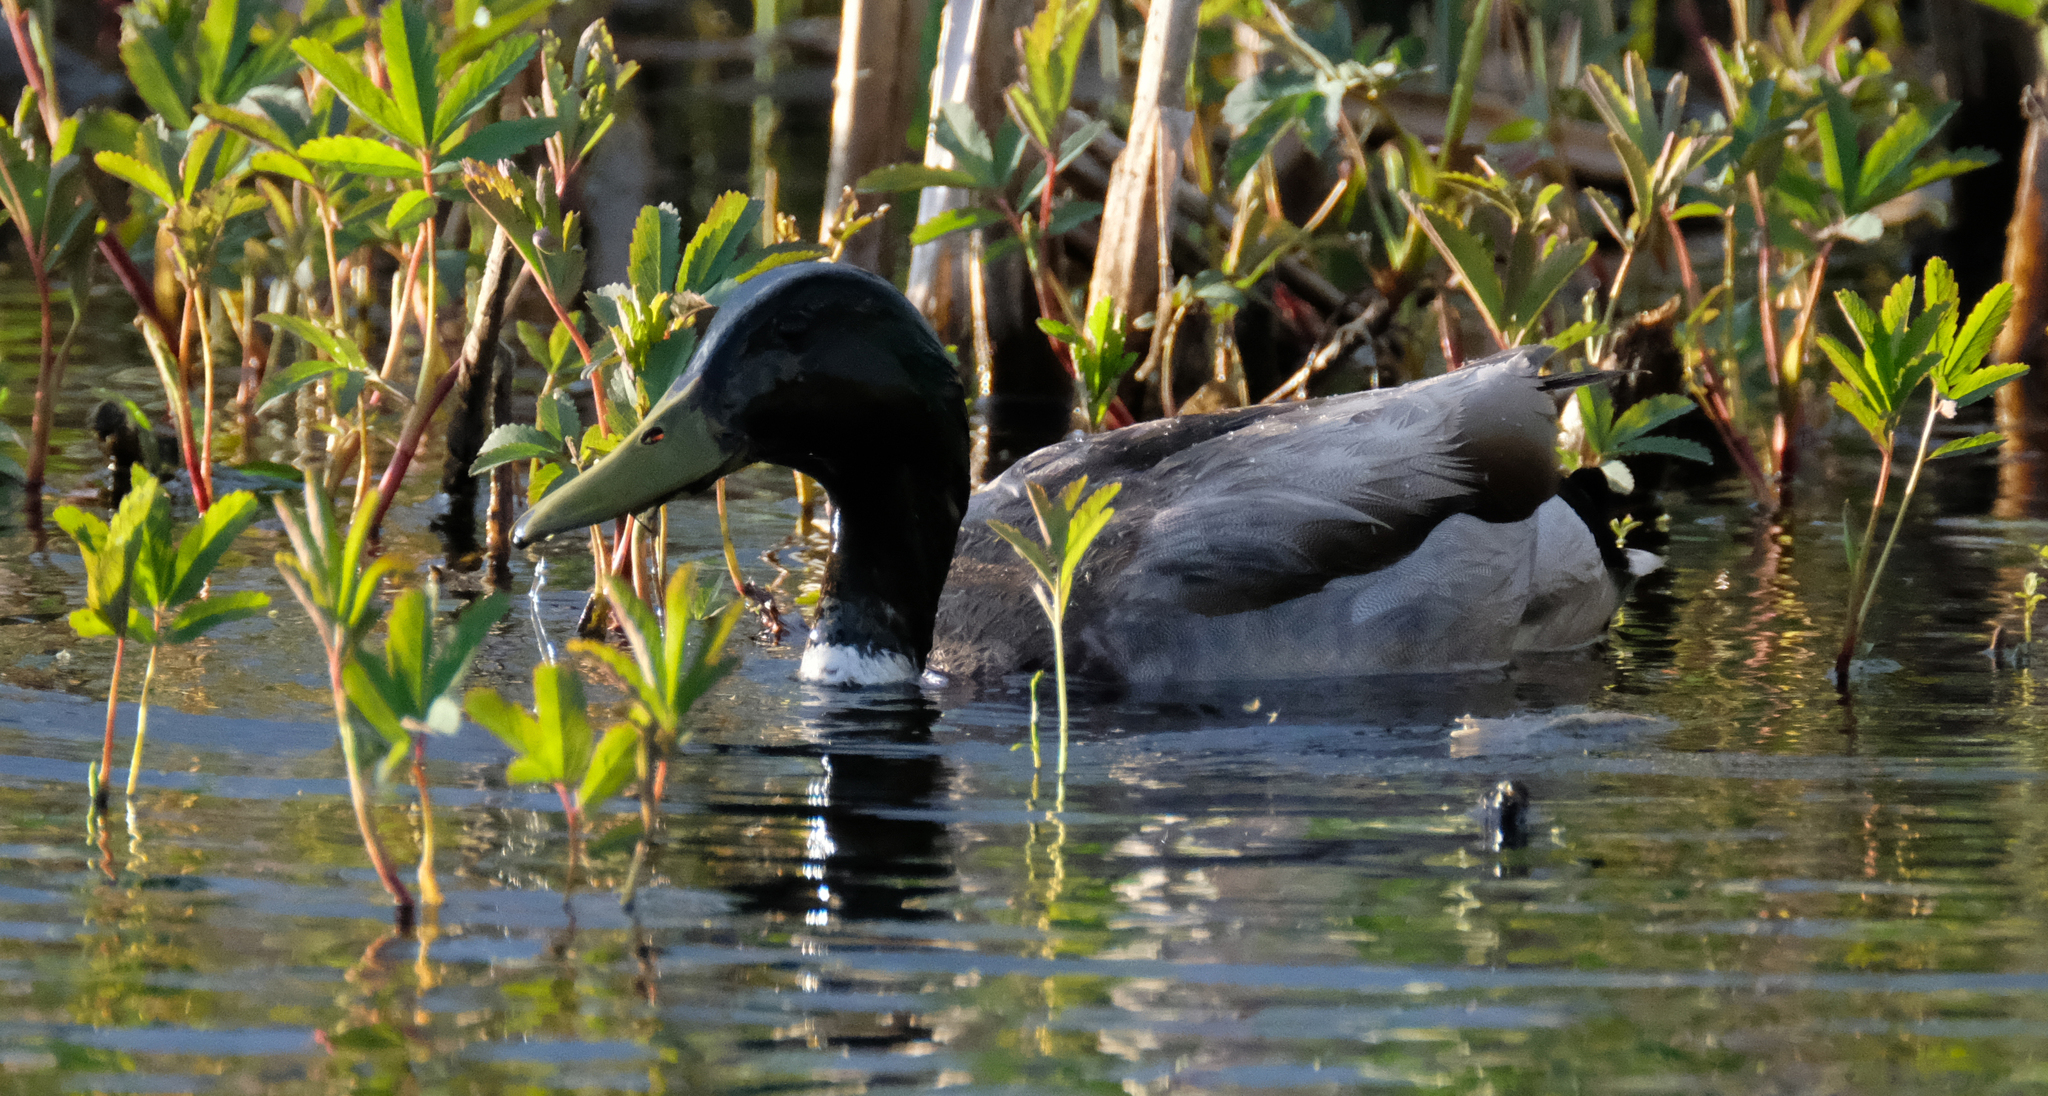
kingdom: Animalia
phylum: Chordata
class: Aves
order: Anseriformes
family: Anatidae
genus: Anas
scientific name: Anas platyrhynchos
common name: Mallard
